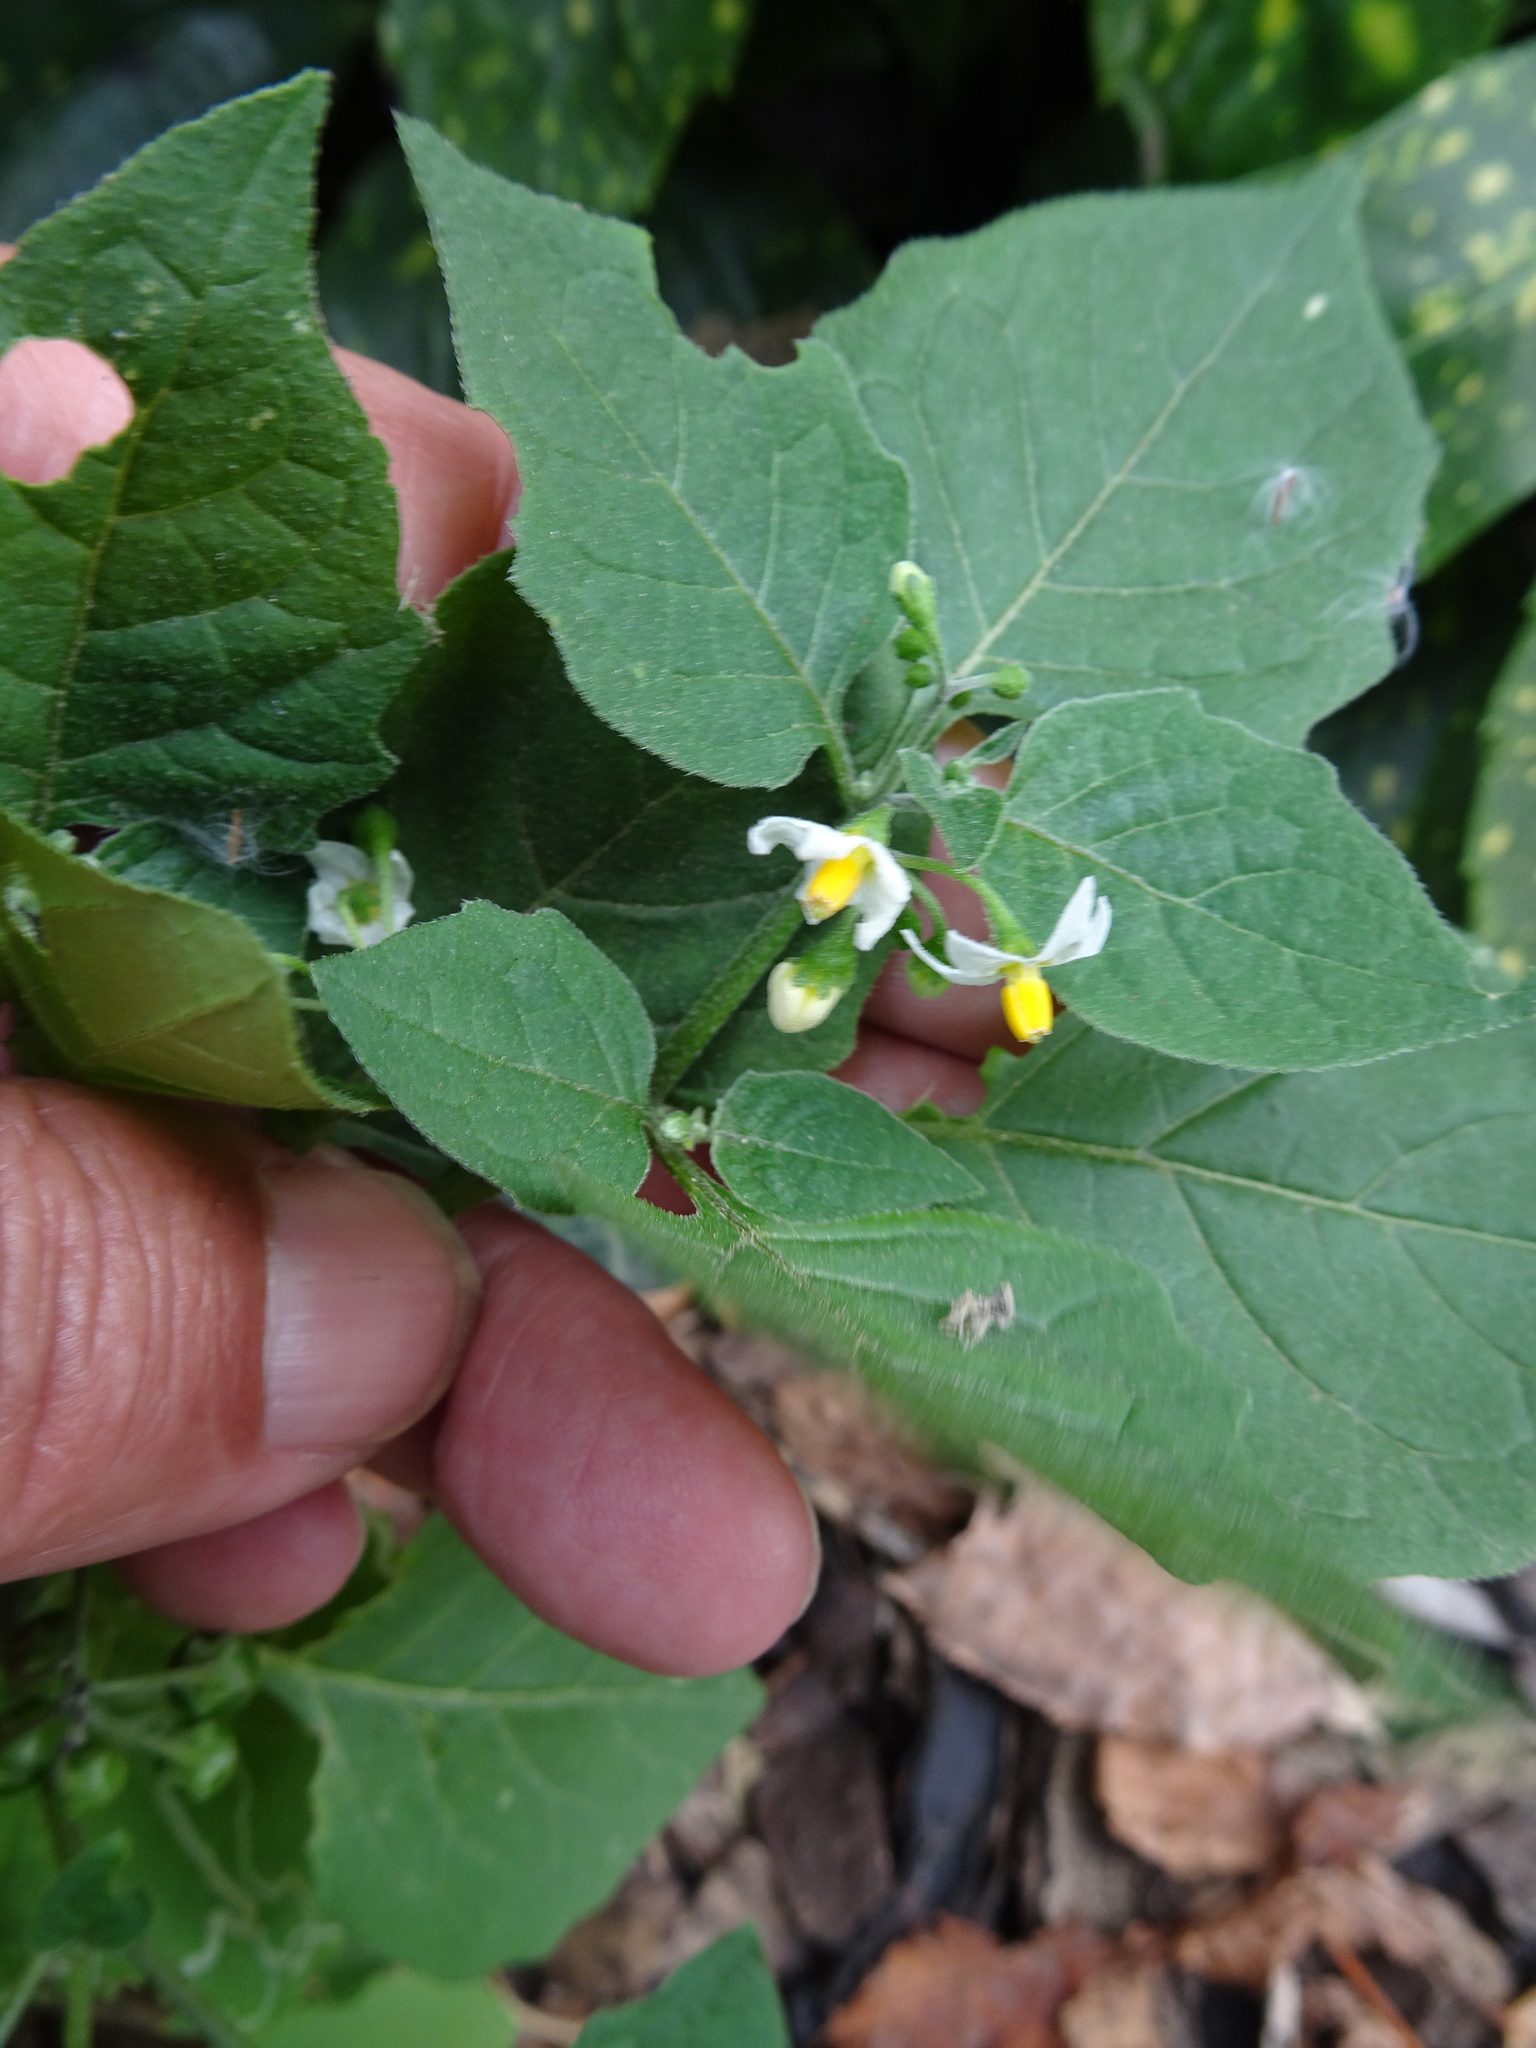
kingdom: Plantae
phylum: Tracheophyta
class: Magnoliopsida
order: Solanales
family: Solanaceae
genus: Solanum
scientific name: Solanum nigrum
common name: Black nightshade
